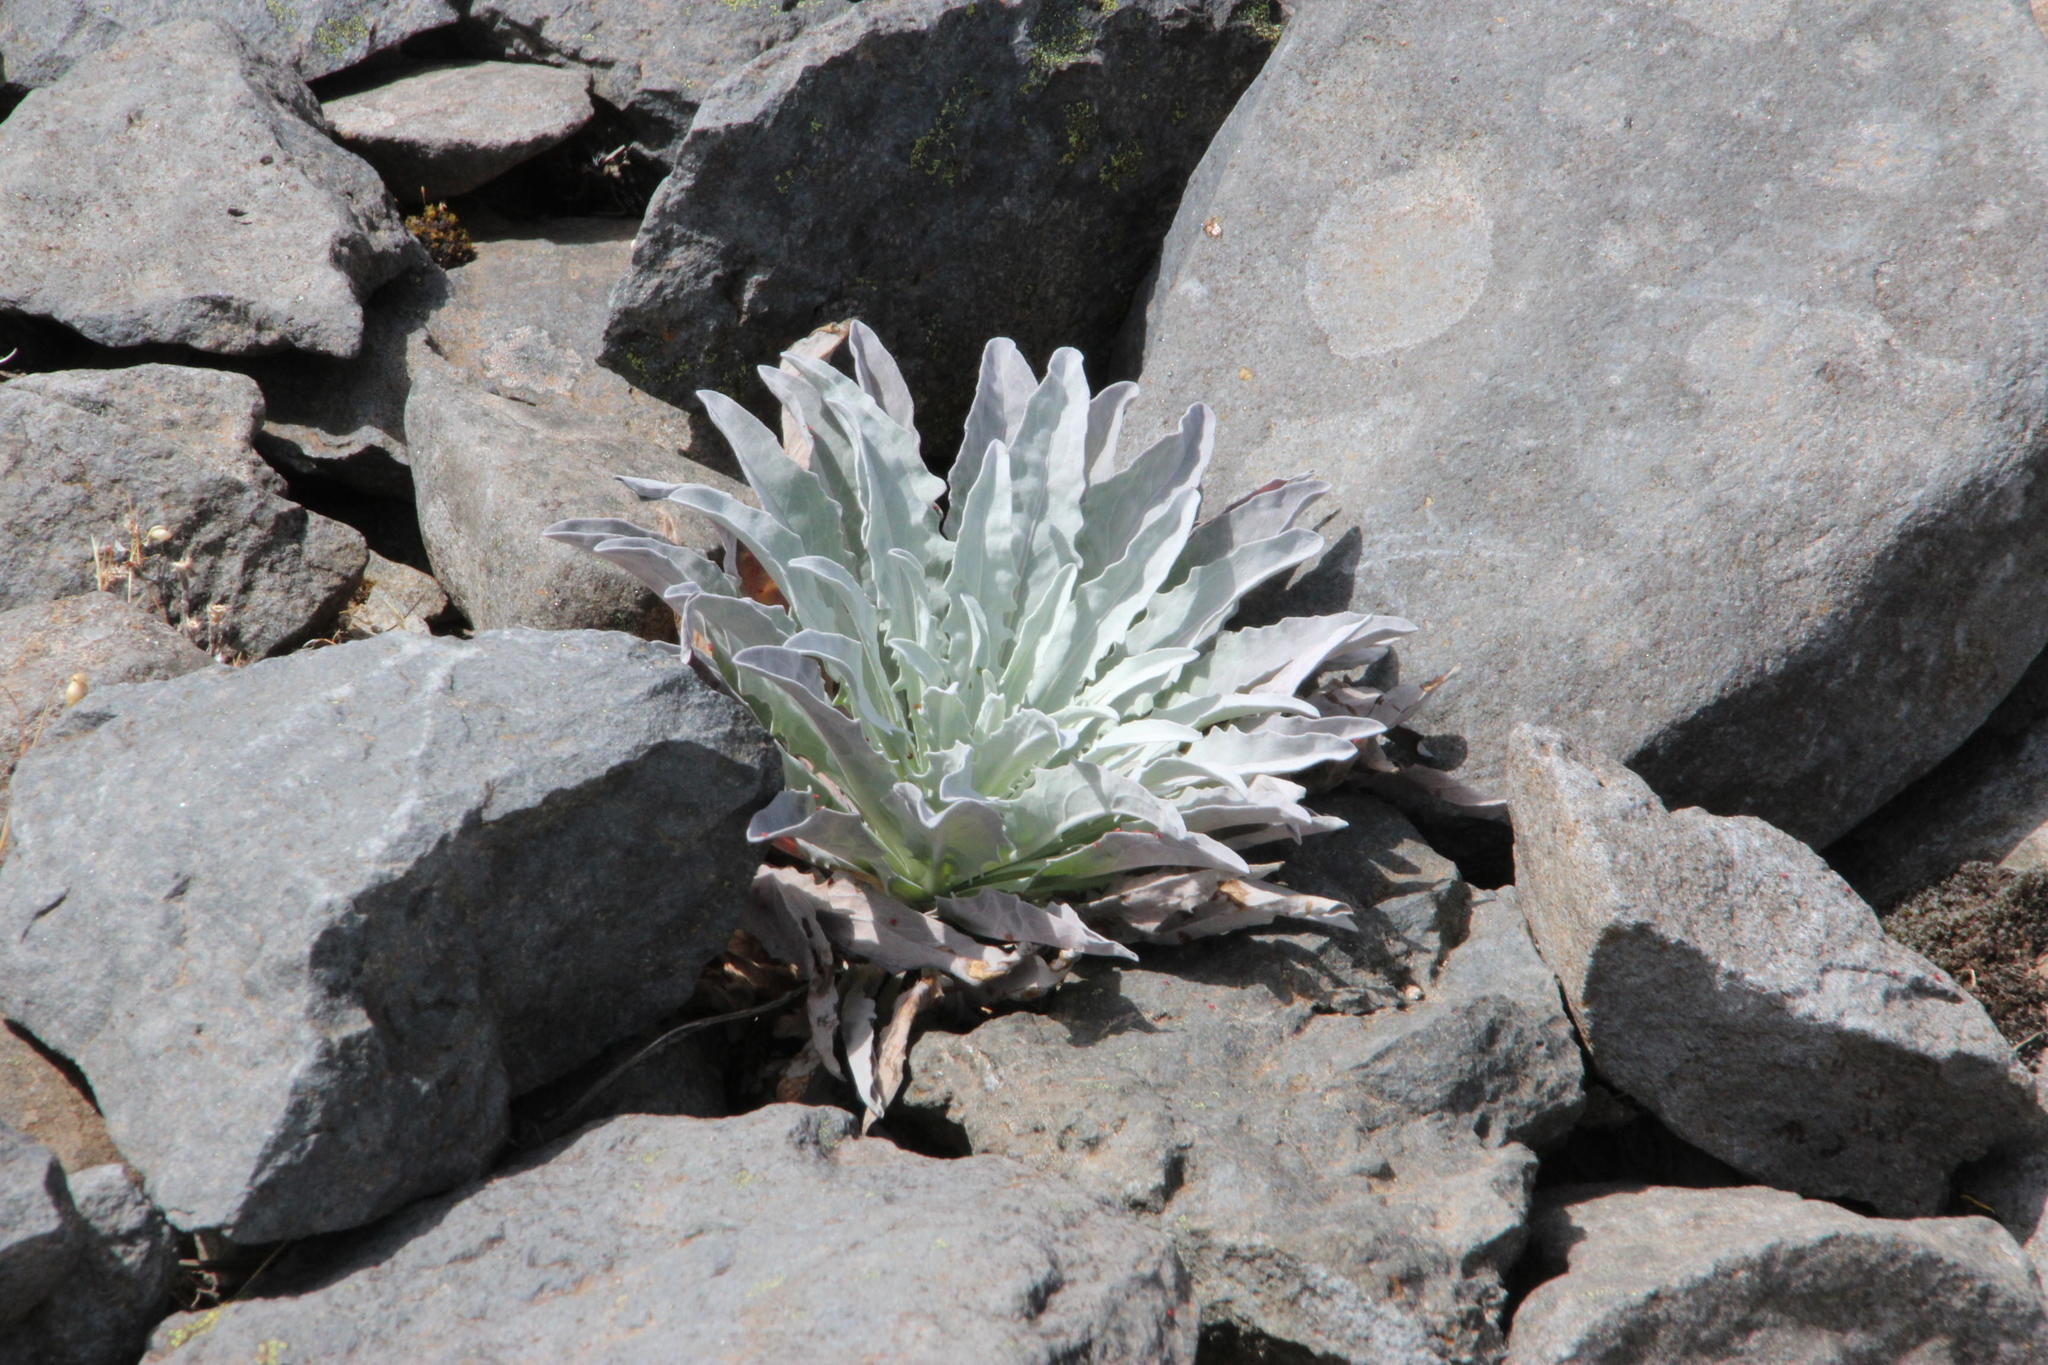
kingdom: Plantae
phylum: Tracheophyta
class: Magnoliopsida
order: Asterales
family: Asteraceae
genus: Andryala
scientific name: Andryala glandulosa
